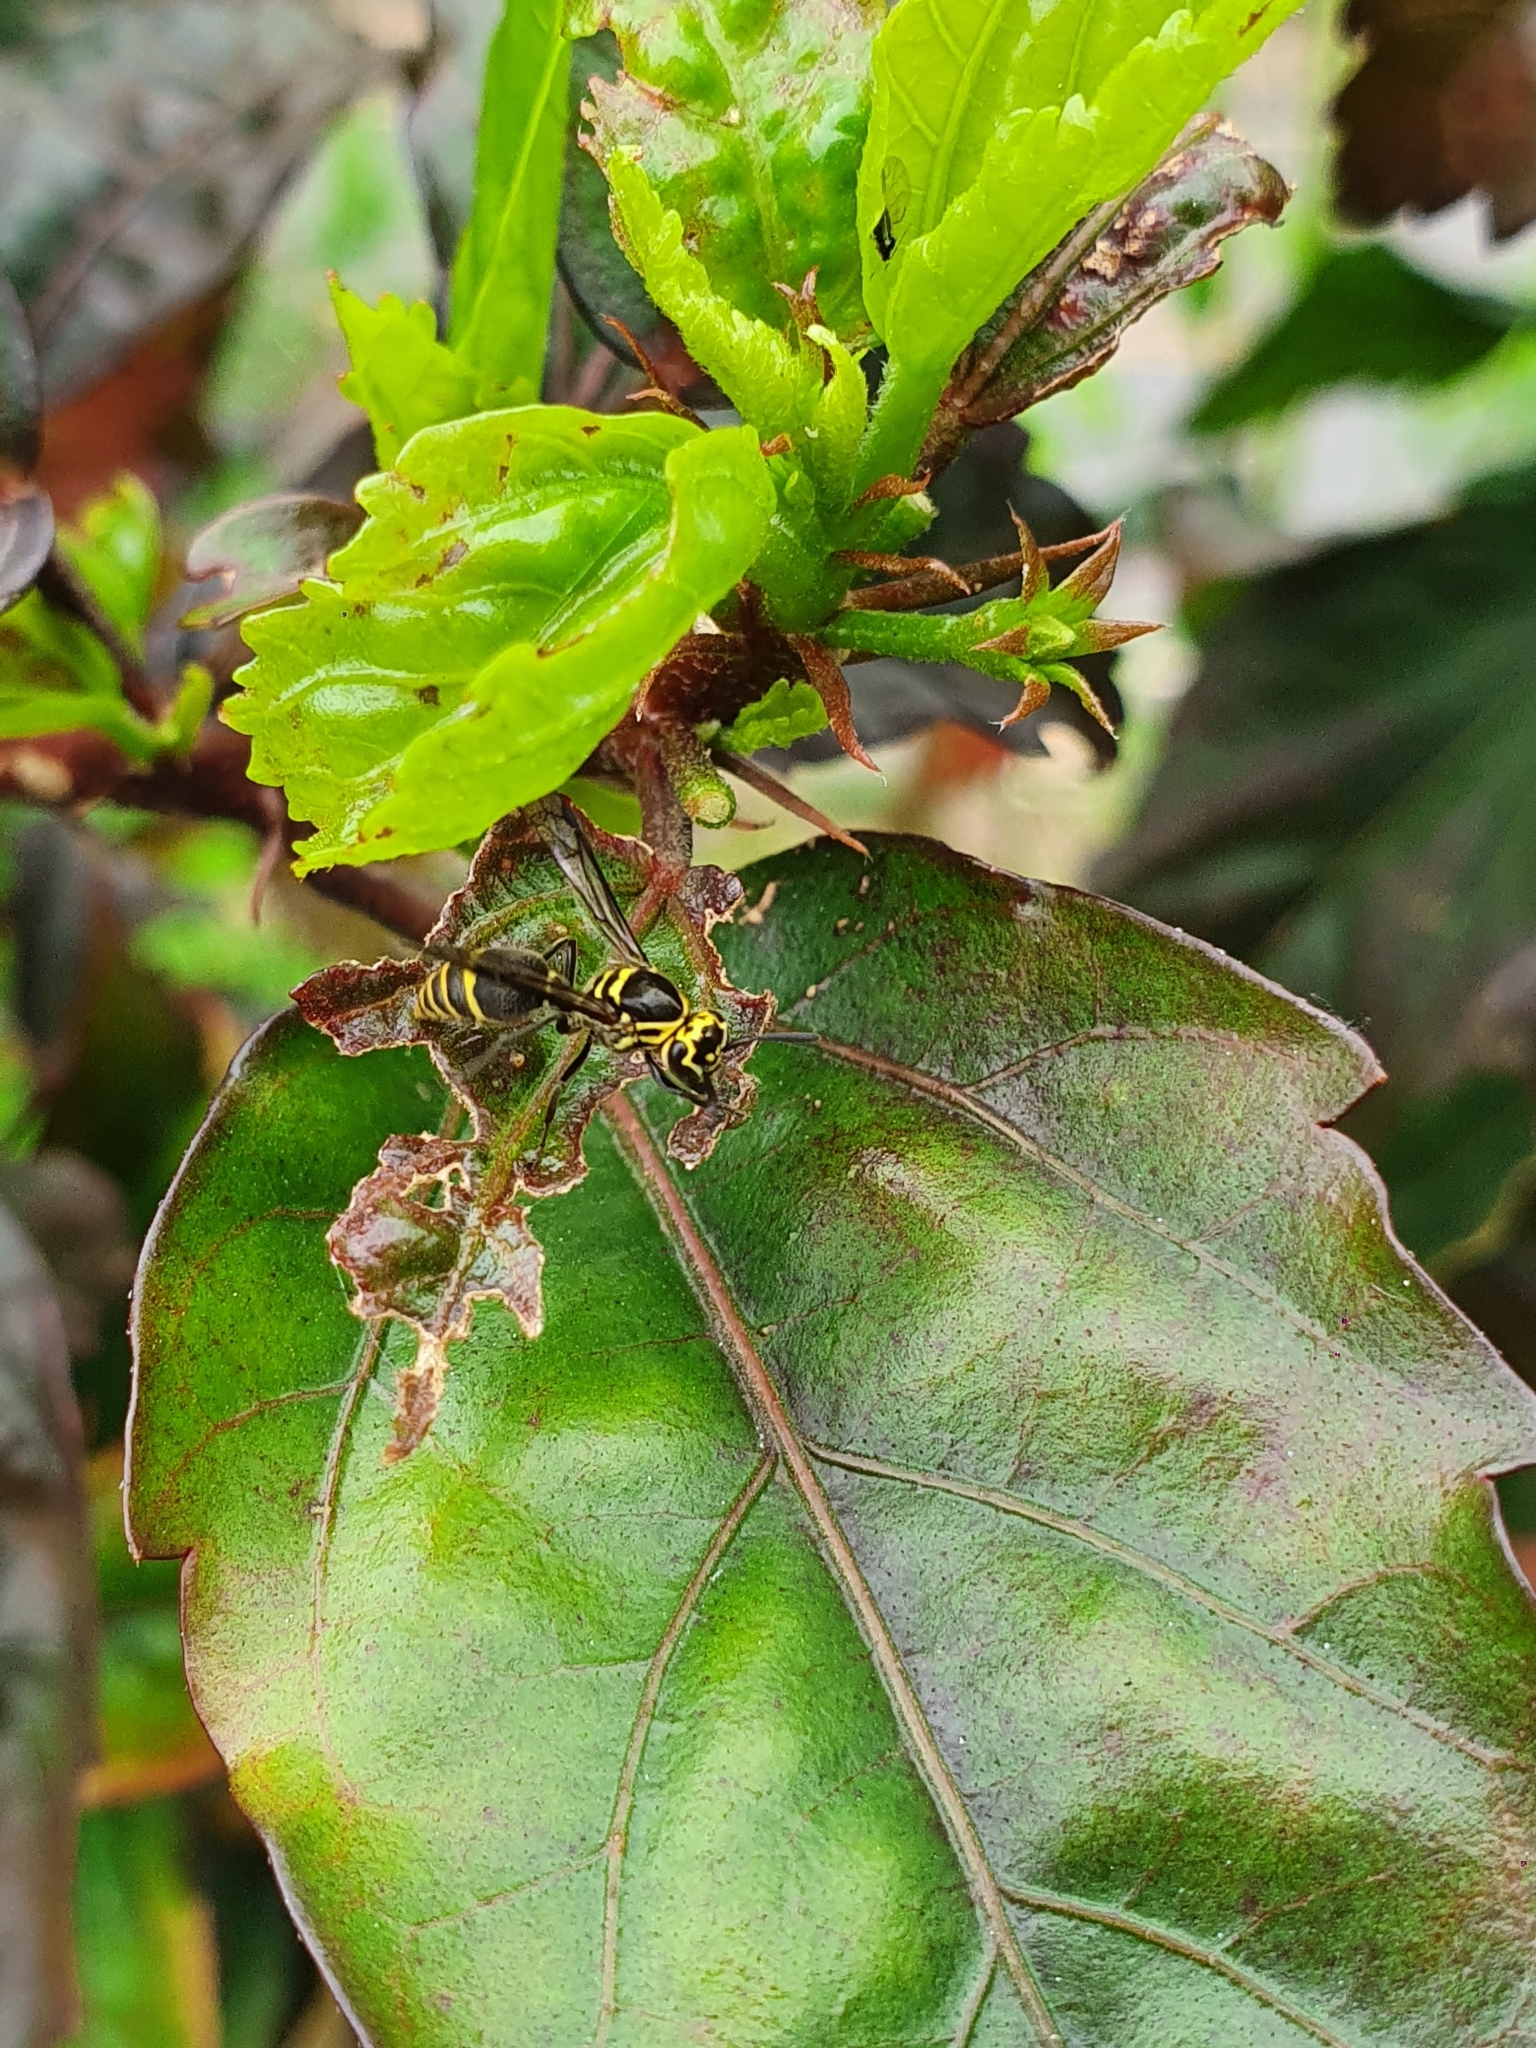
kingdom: Animalia
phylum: Arthropoda
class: Insecta
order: Hymenoptera
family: Vespidae
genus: Protonectarina
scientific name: Protonectarina sylveirae
